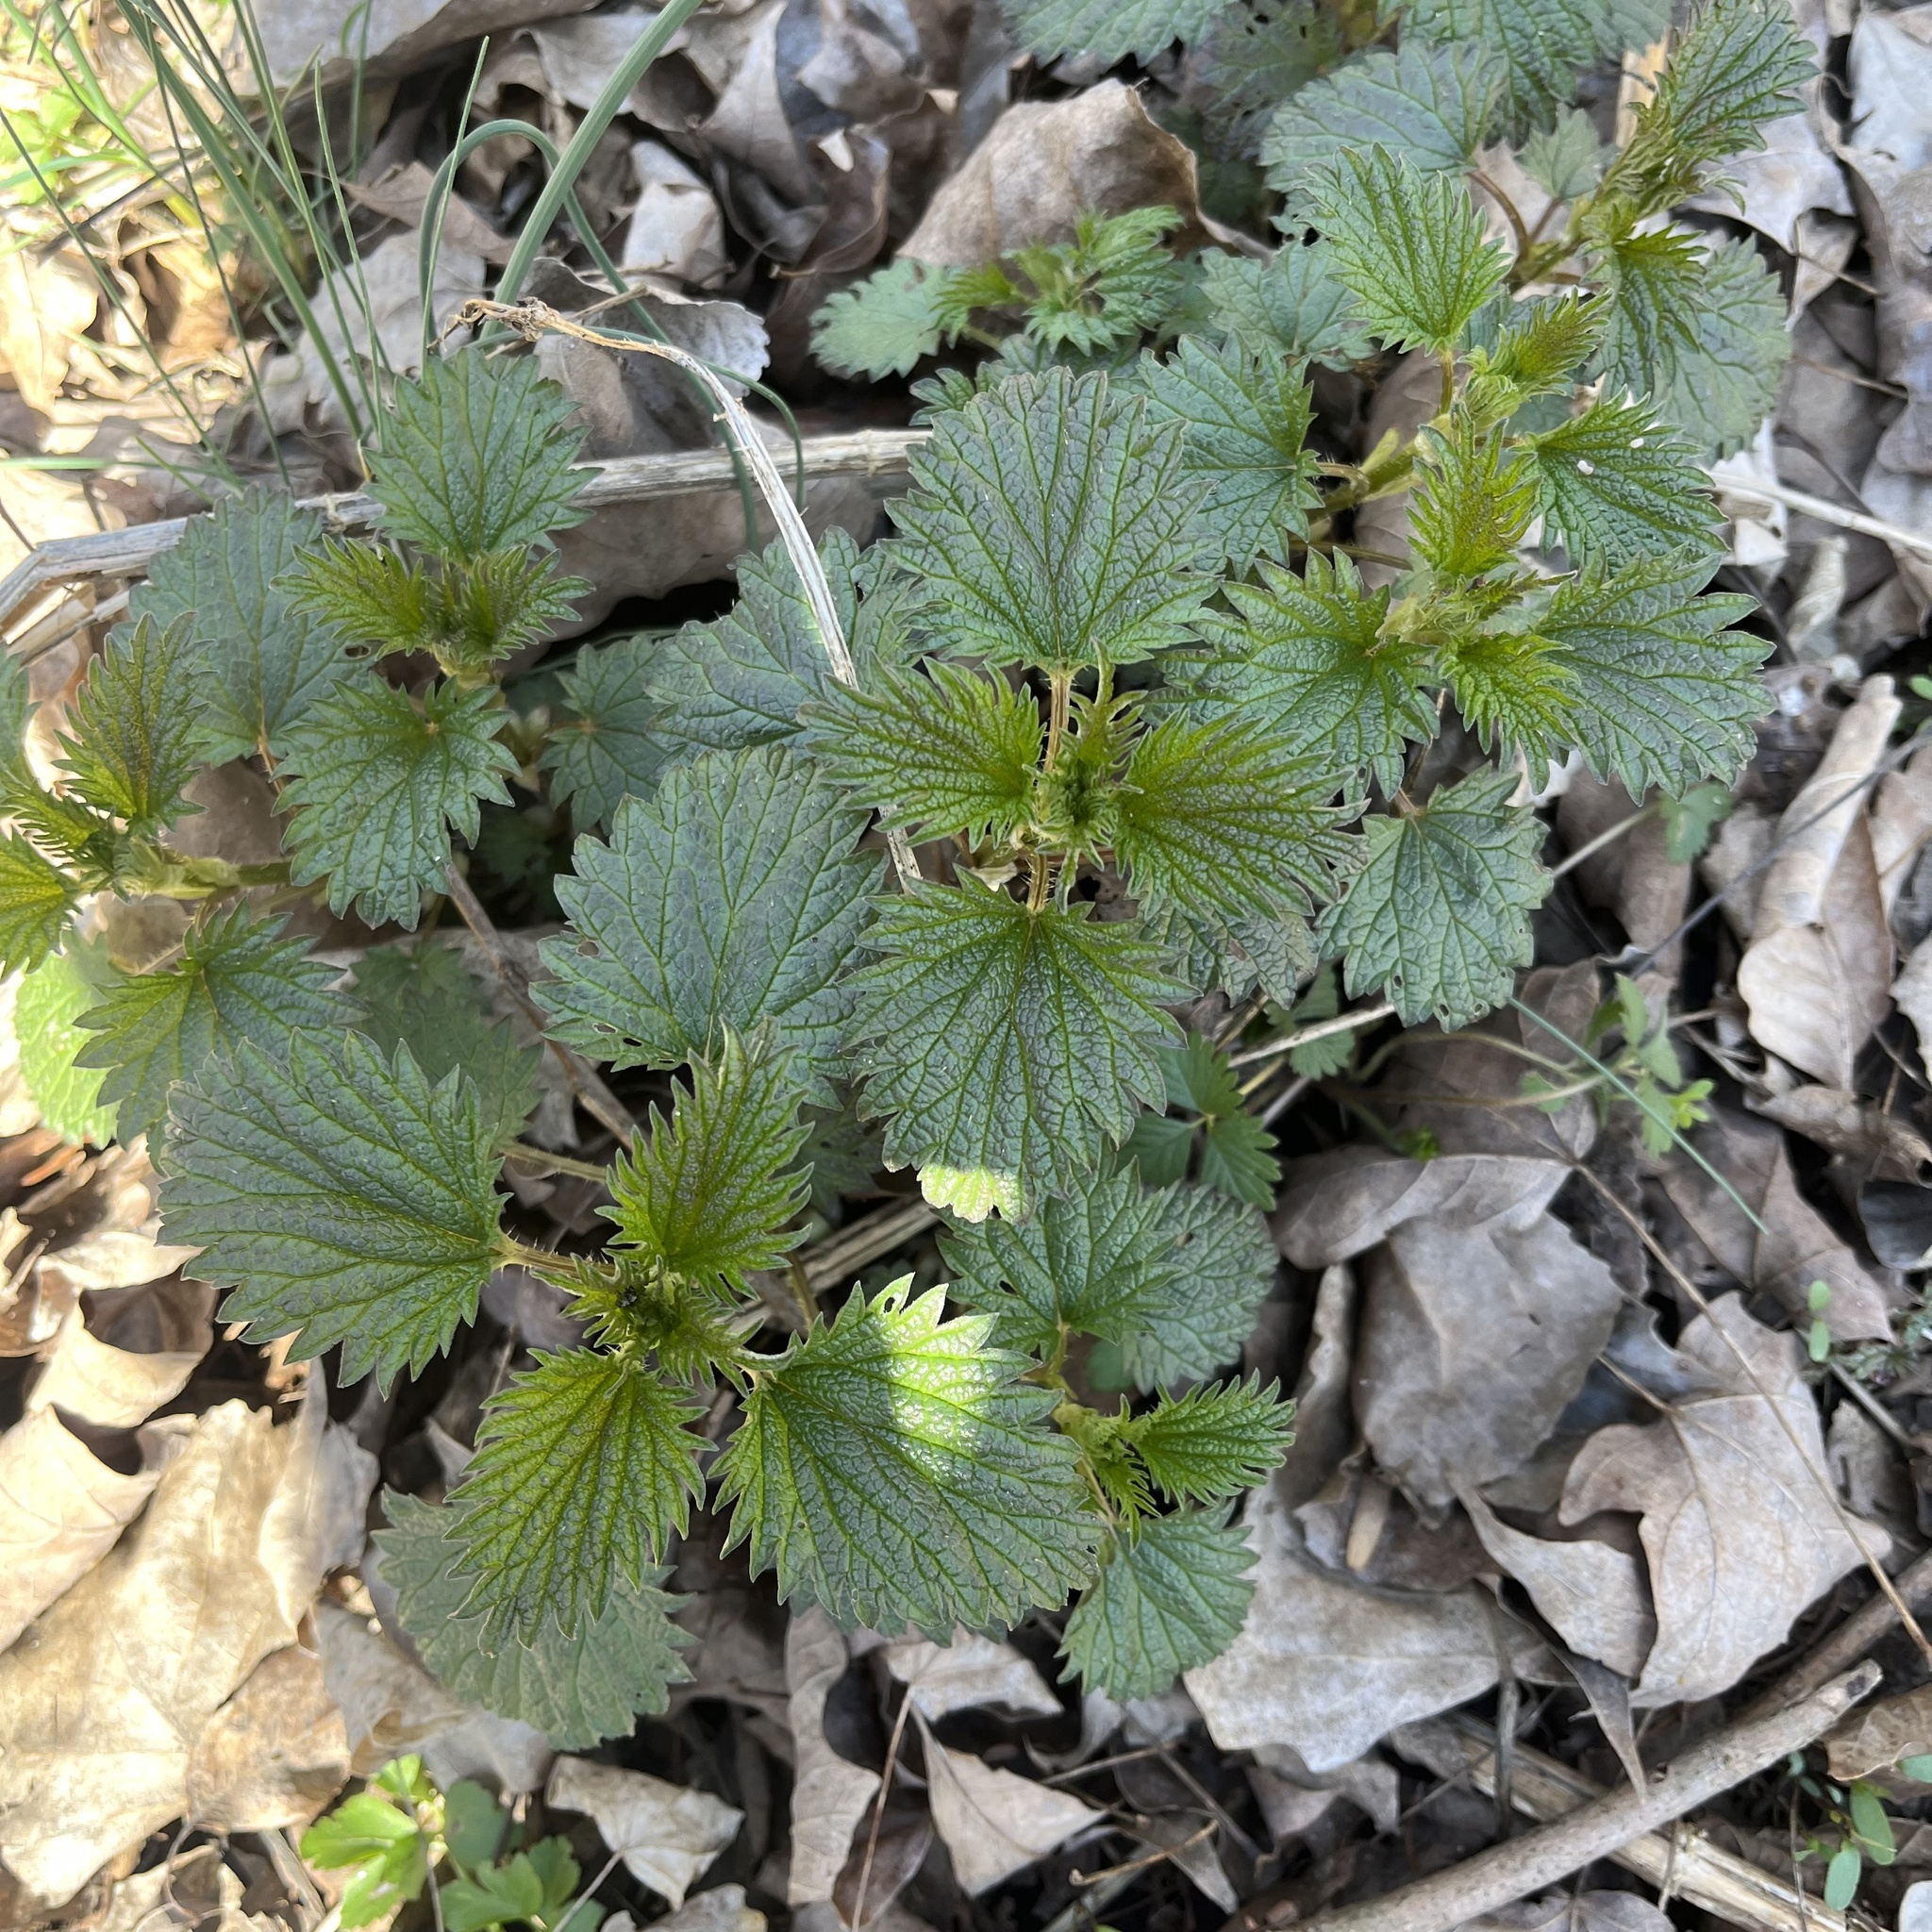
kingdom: Plantae
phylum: Tracheophyta
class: Magnoliopsida
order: Rosales
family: Urticaceae
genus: Urtica
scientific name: Urtica dioica
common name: Common nettle
